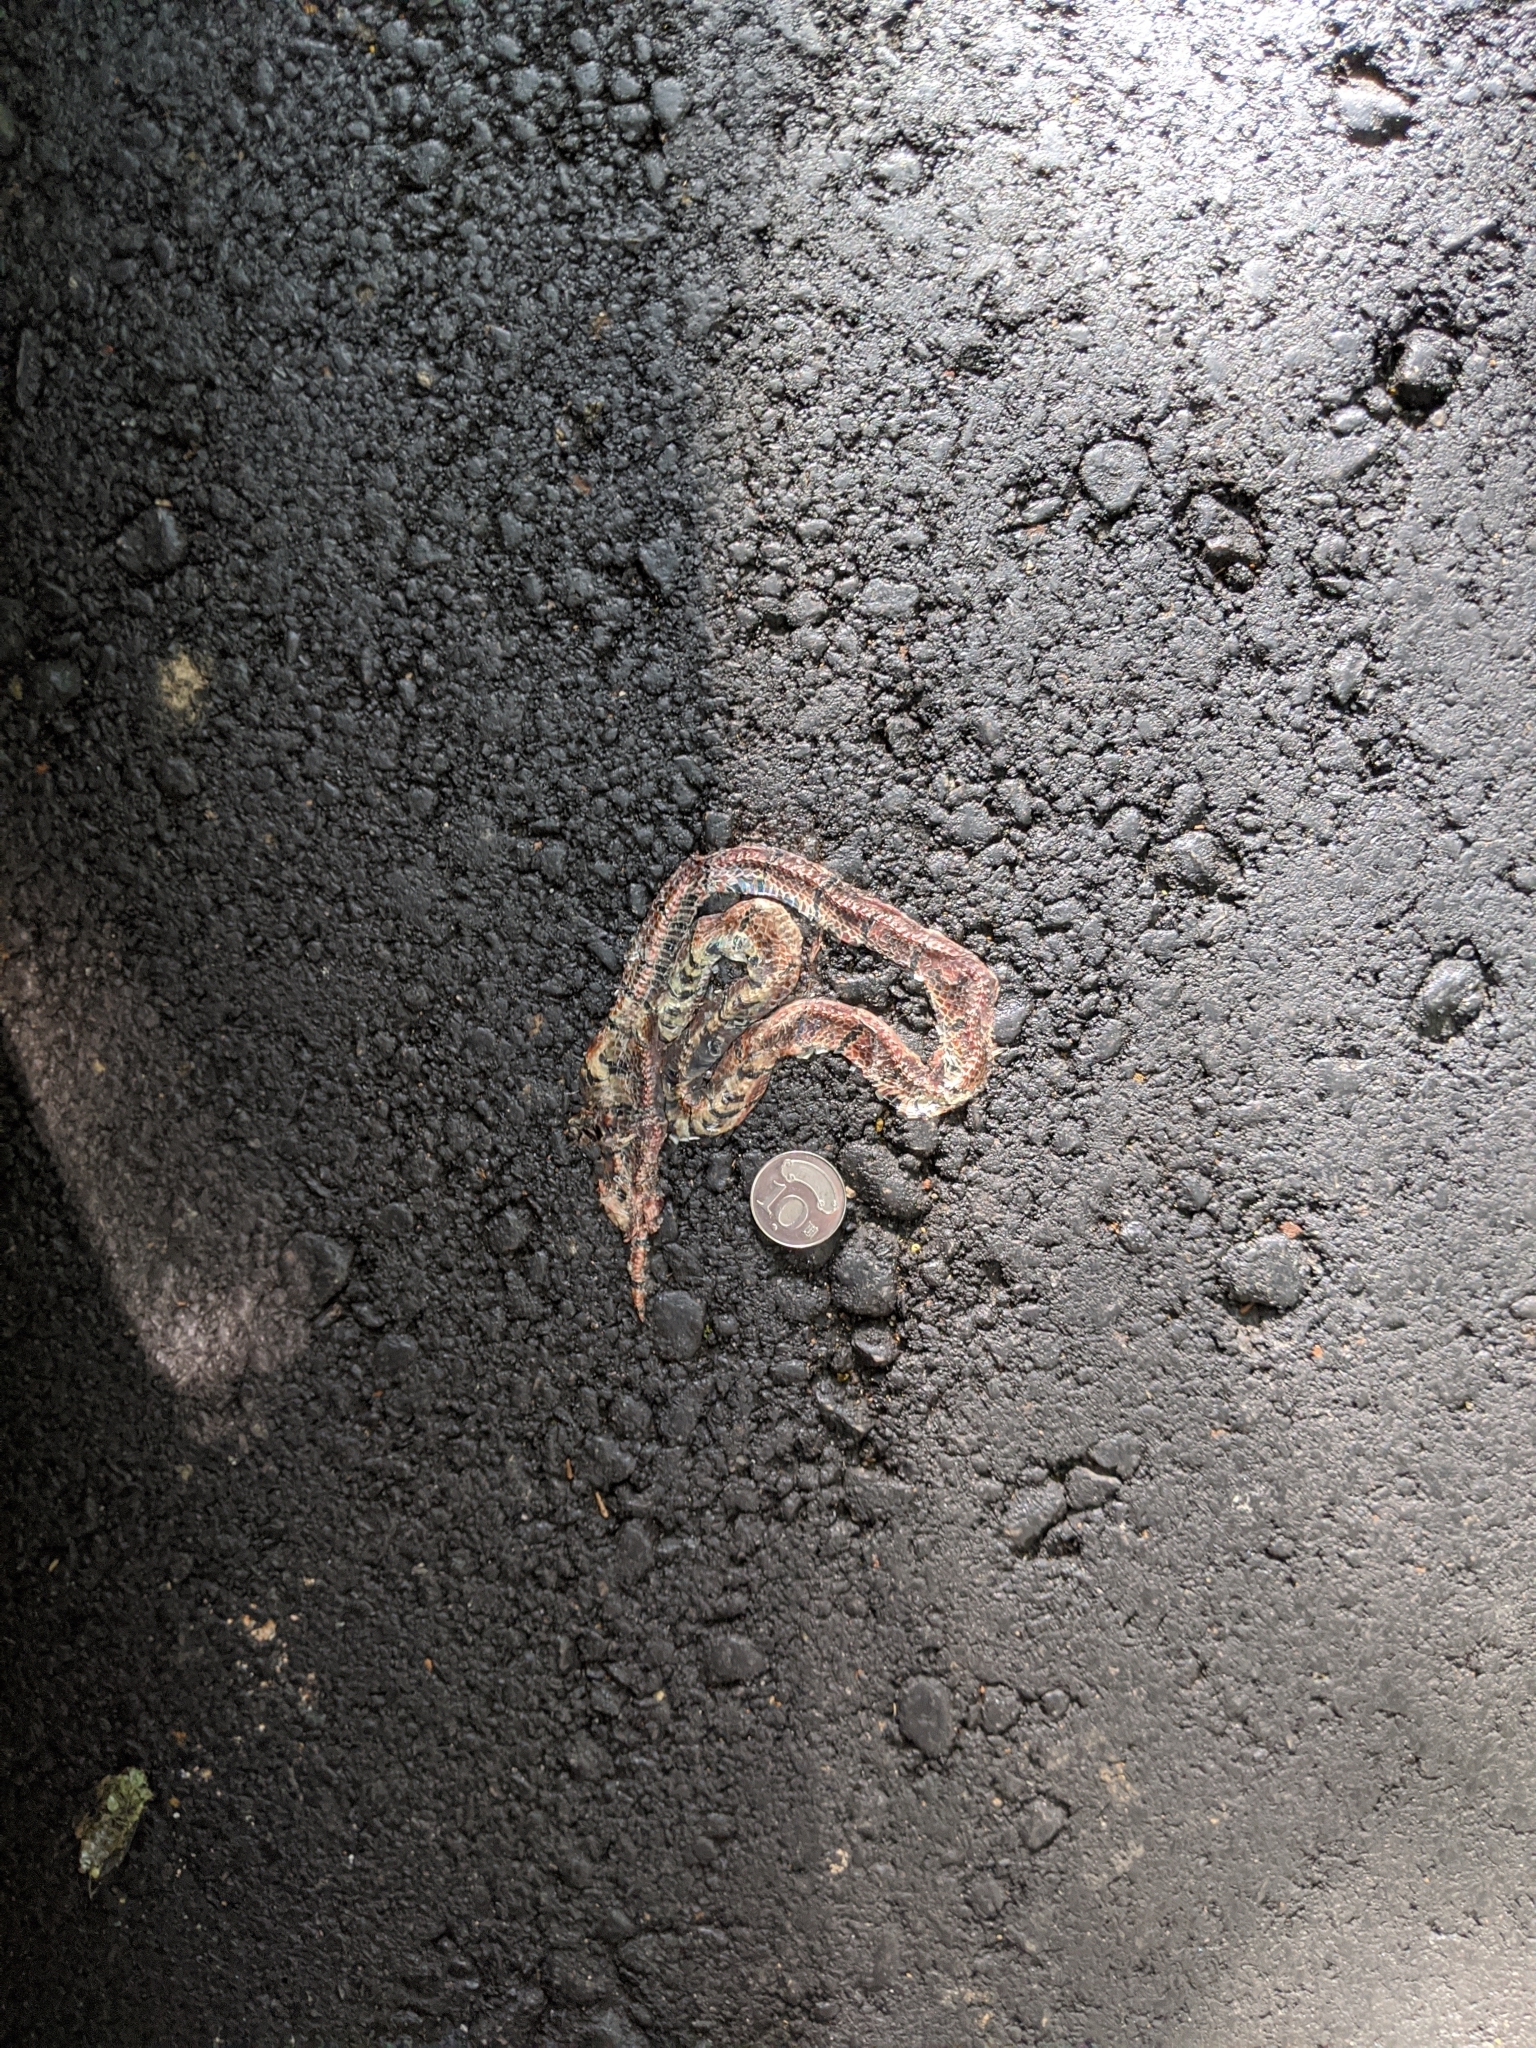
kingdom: Animalia
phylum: Chordata
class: Squamata
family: Elapidae
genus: Sinomicrurus
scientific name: Sinomicrurus swinhoei
